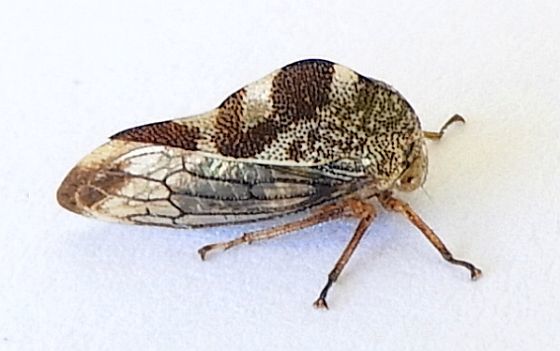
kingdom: Animalia
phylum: Arthropoda
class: Insecta
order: Hemiptera
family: Membracidae
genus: Grandolobus
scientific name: Grandolobus grandis
